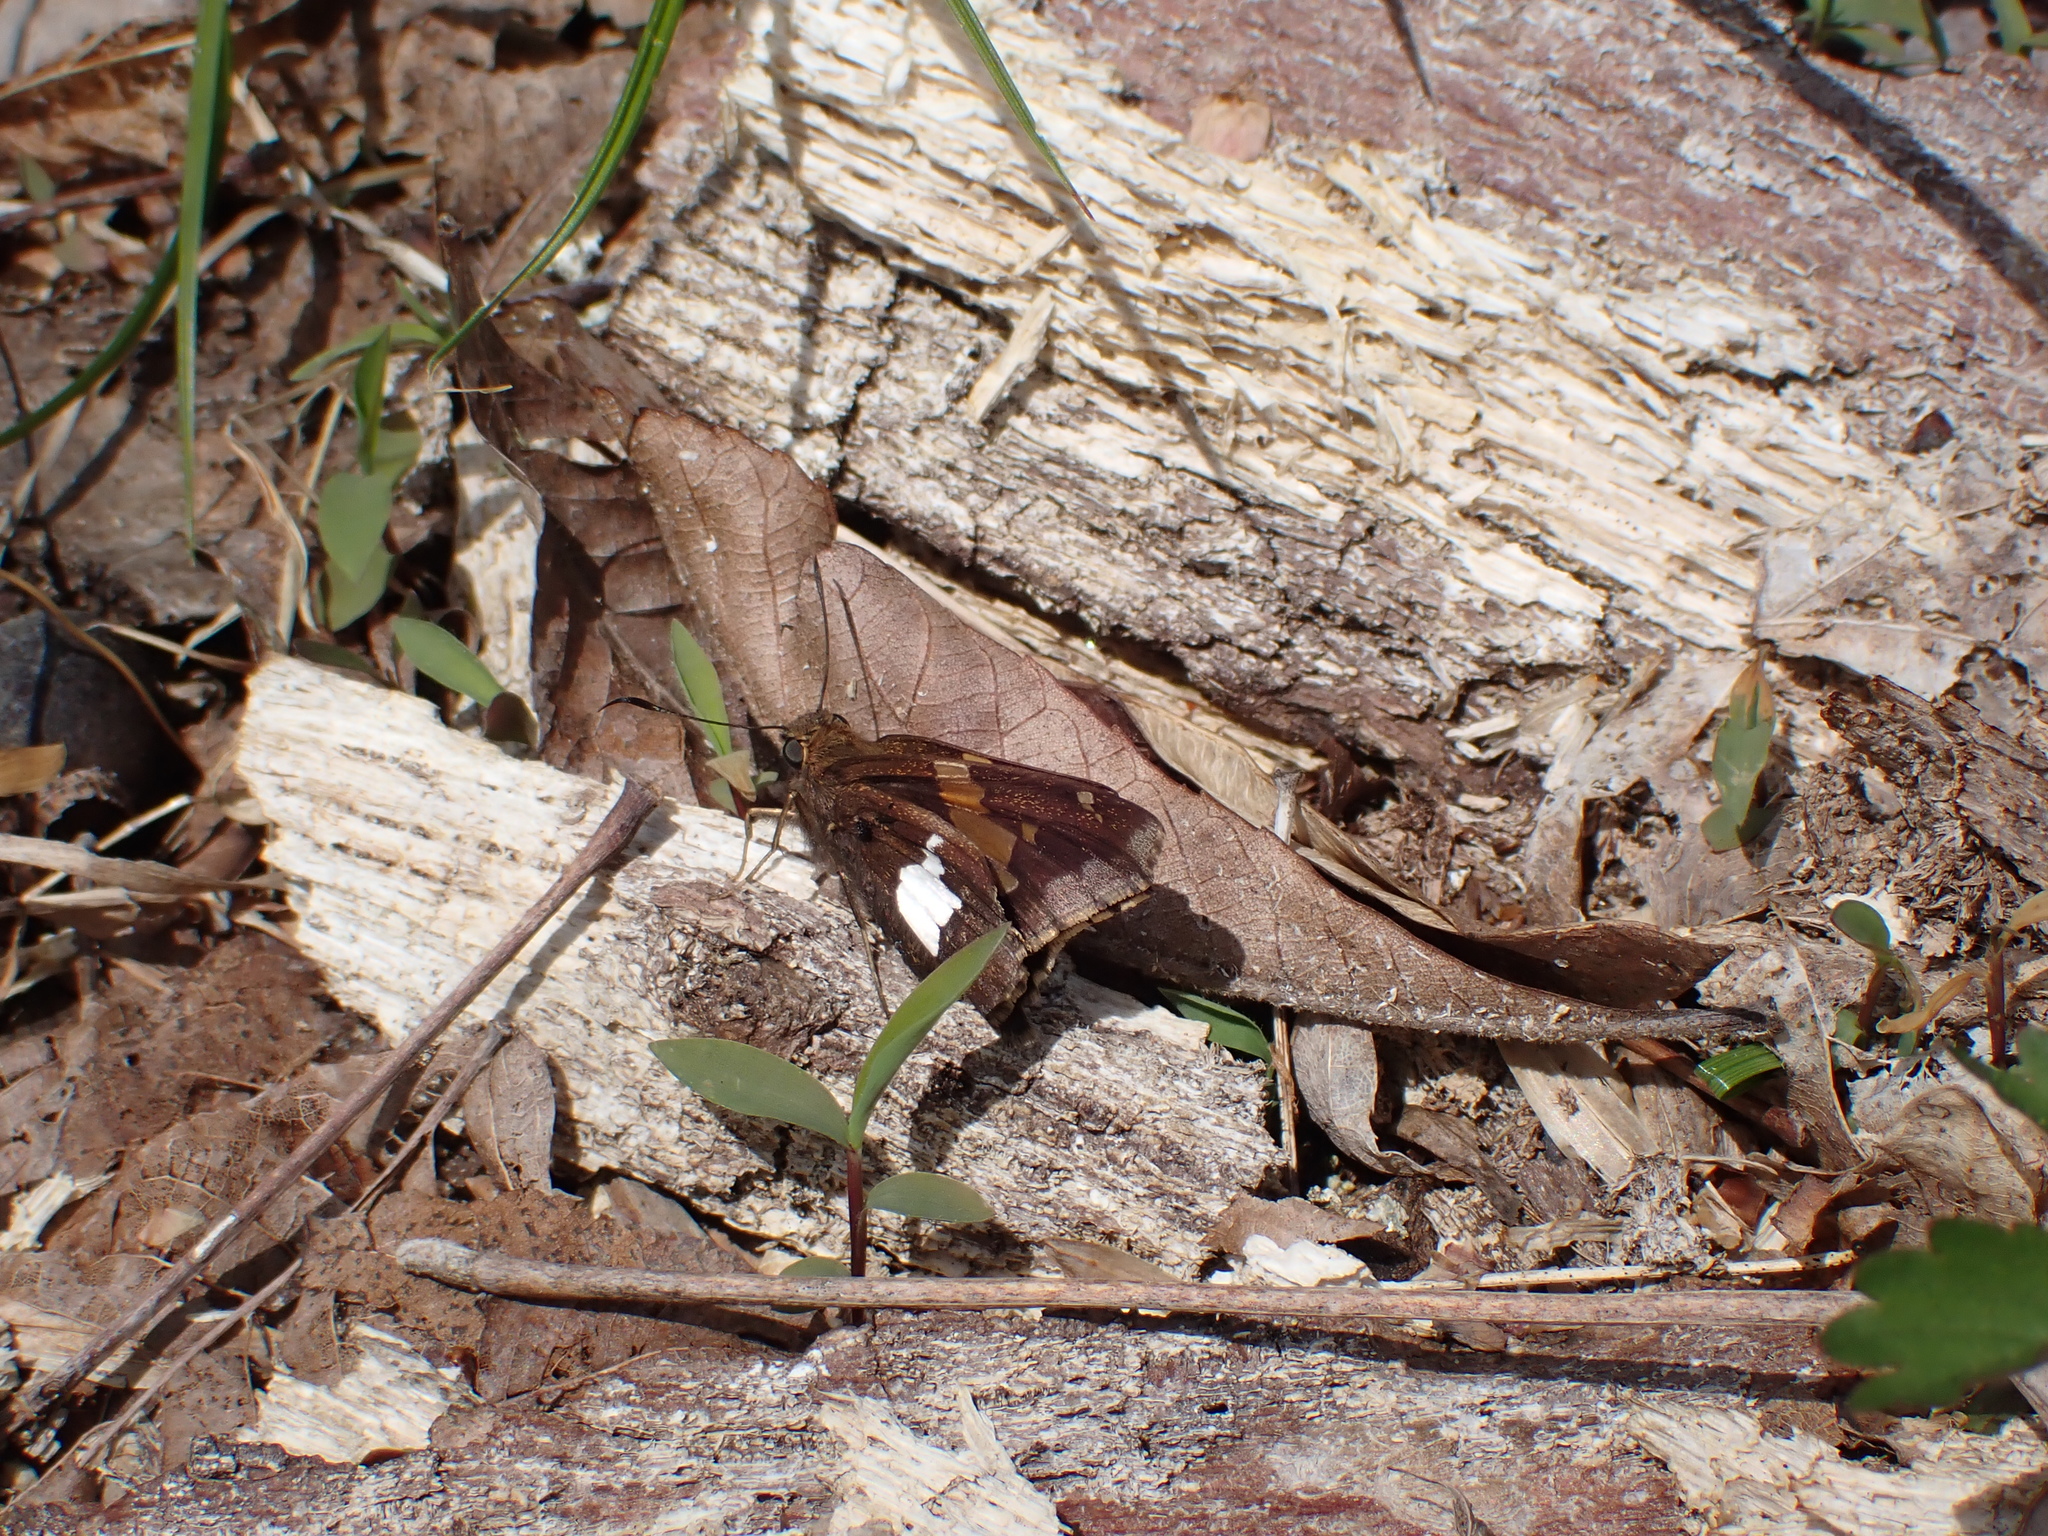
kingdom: Animalia
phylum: Arthropoda
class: Insecta
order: Lepidoptera
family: Hesperiidae
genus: Epargyreus
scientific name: Epargyreus clarus
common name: Silver-spotted skipper
